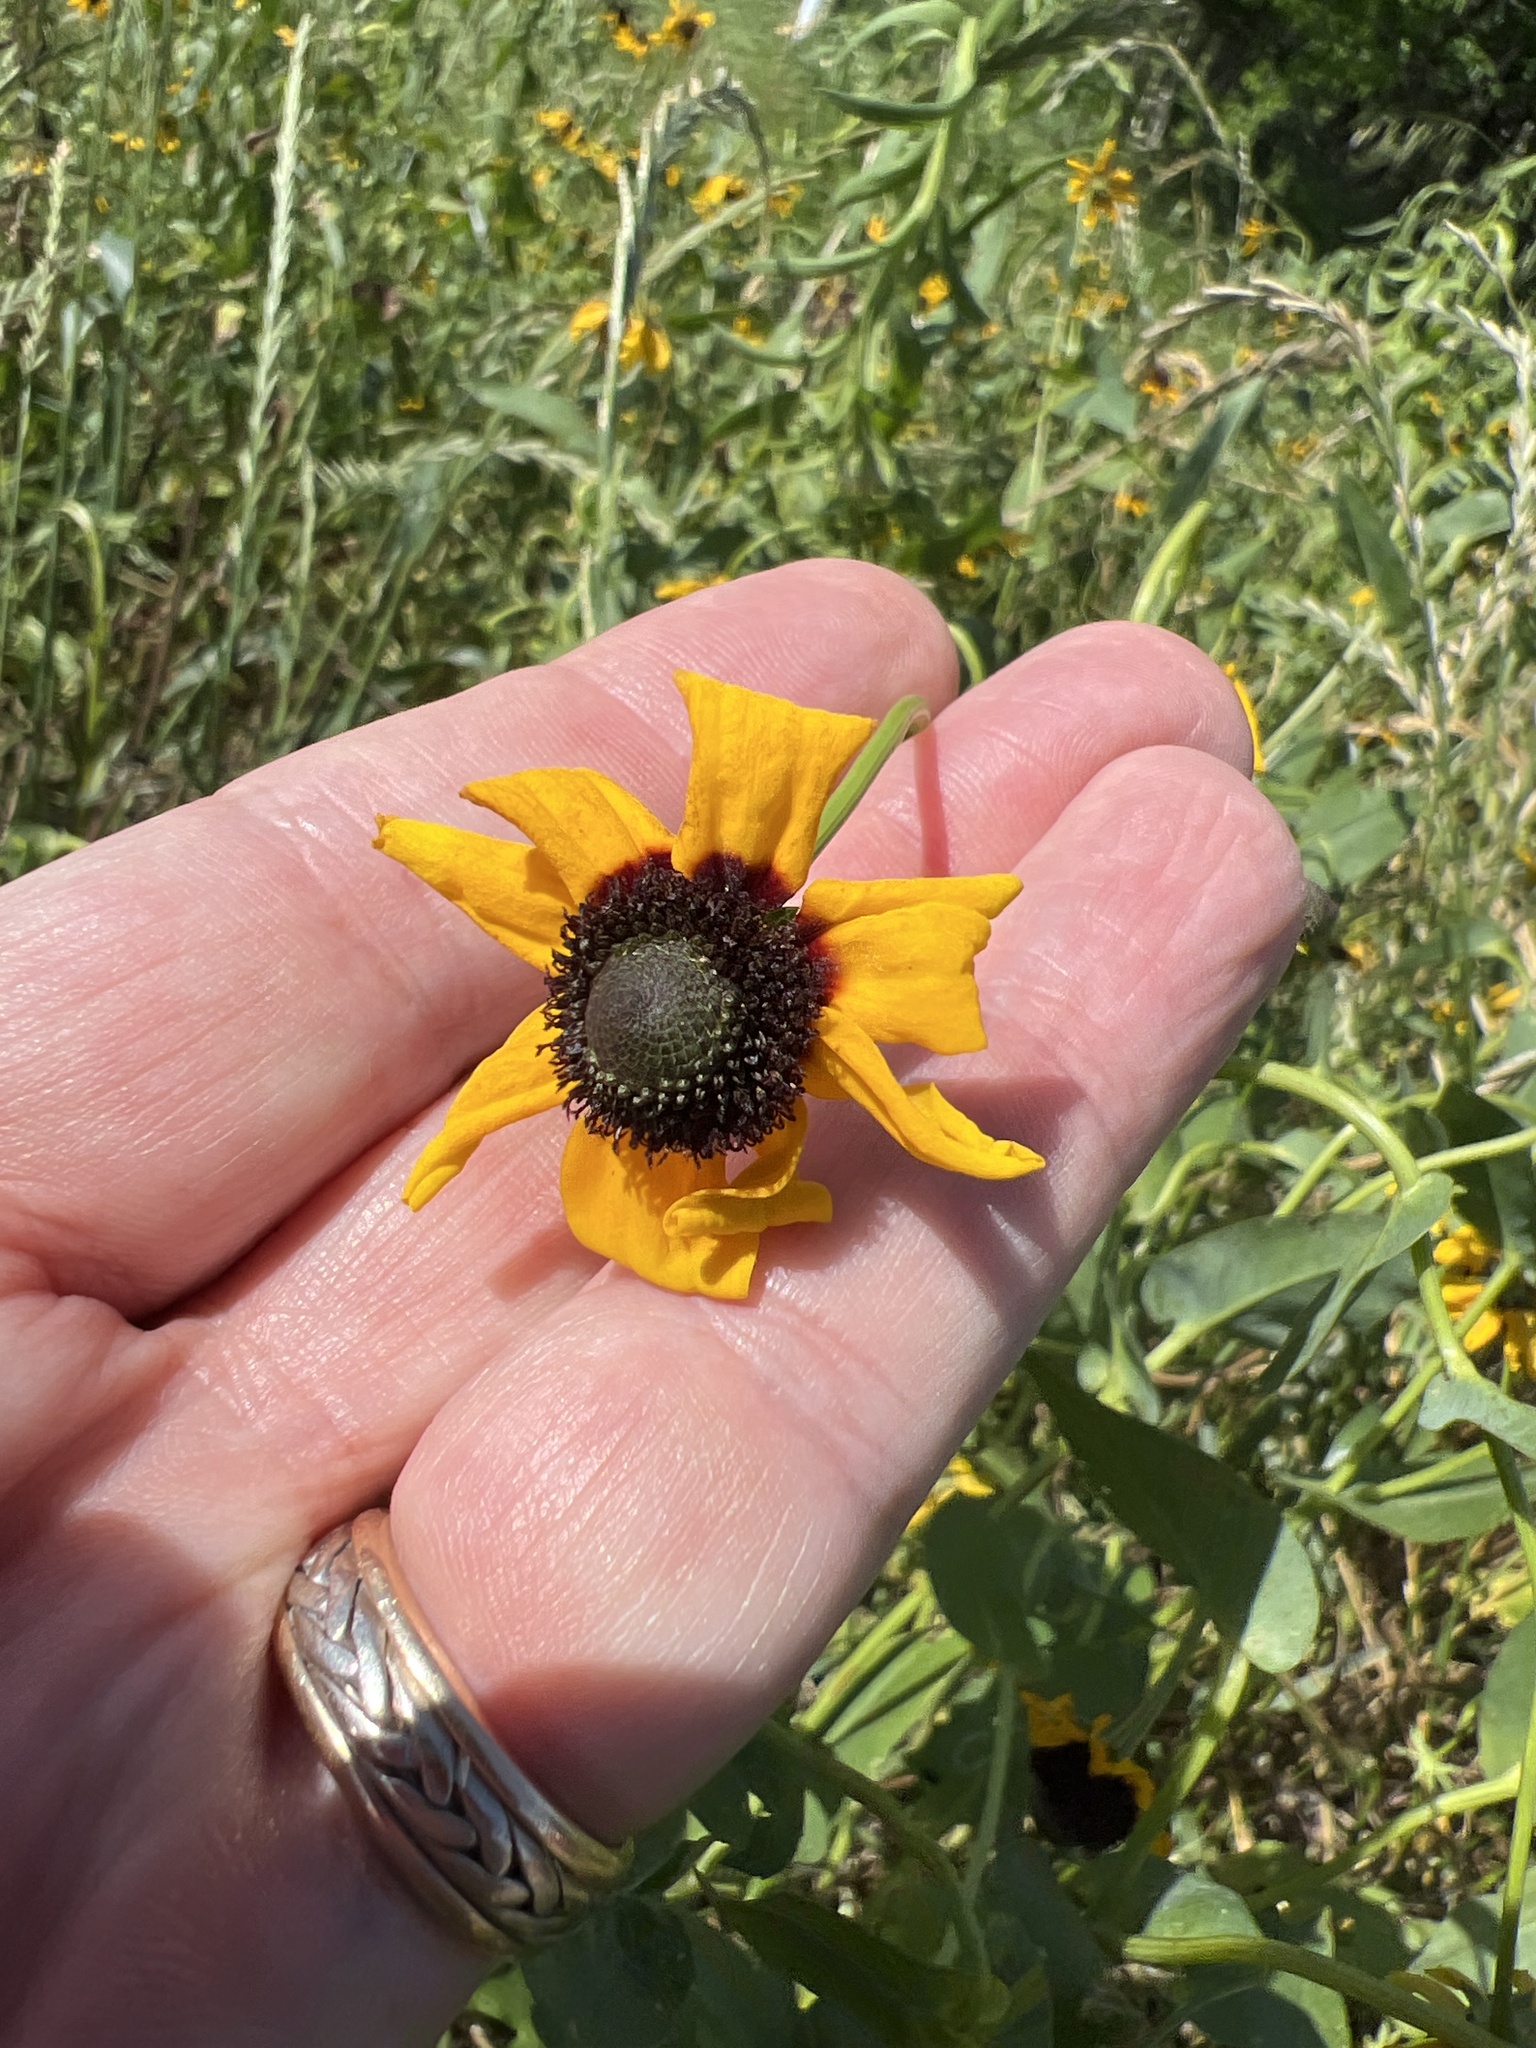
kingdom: Plantae
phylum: Tracheophyta
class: Magnoliopsida
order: Asterales
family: Asteraceae
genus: Rudbeckia
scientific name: Rudbeckia amplexicaulis
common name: Clasping-leaf coneflower
